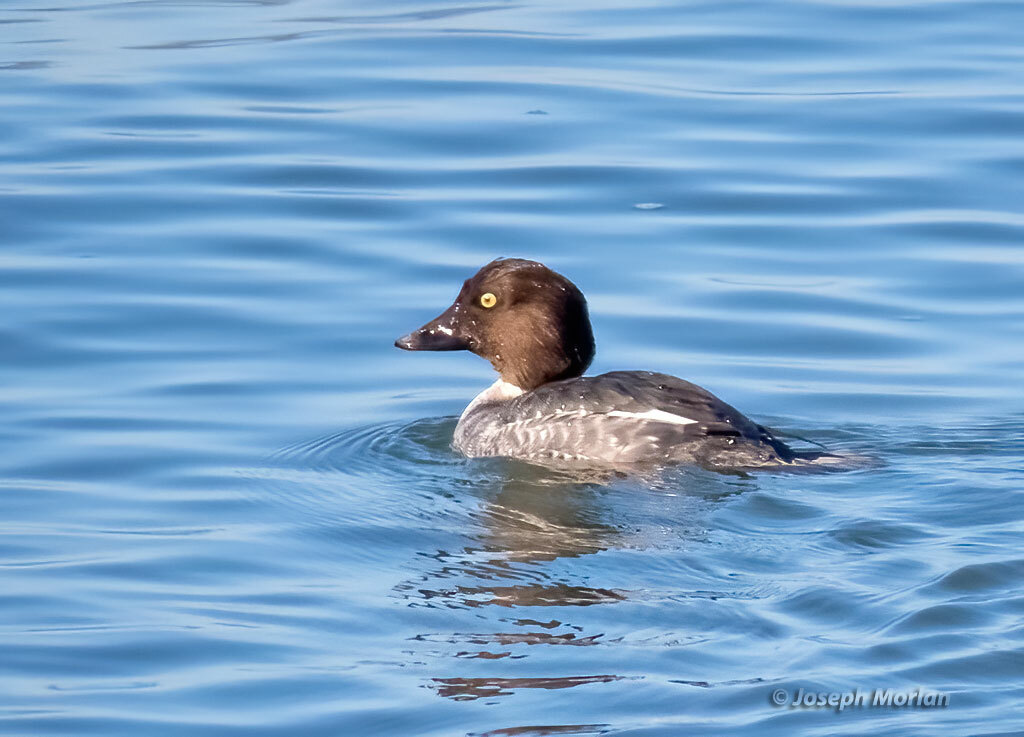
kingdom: Animalia
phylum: Chordata
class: Aves
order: Anseriformes
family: Anatidae
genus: Bucephala
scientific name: Bucephala clangula
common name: Common goldeneye
